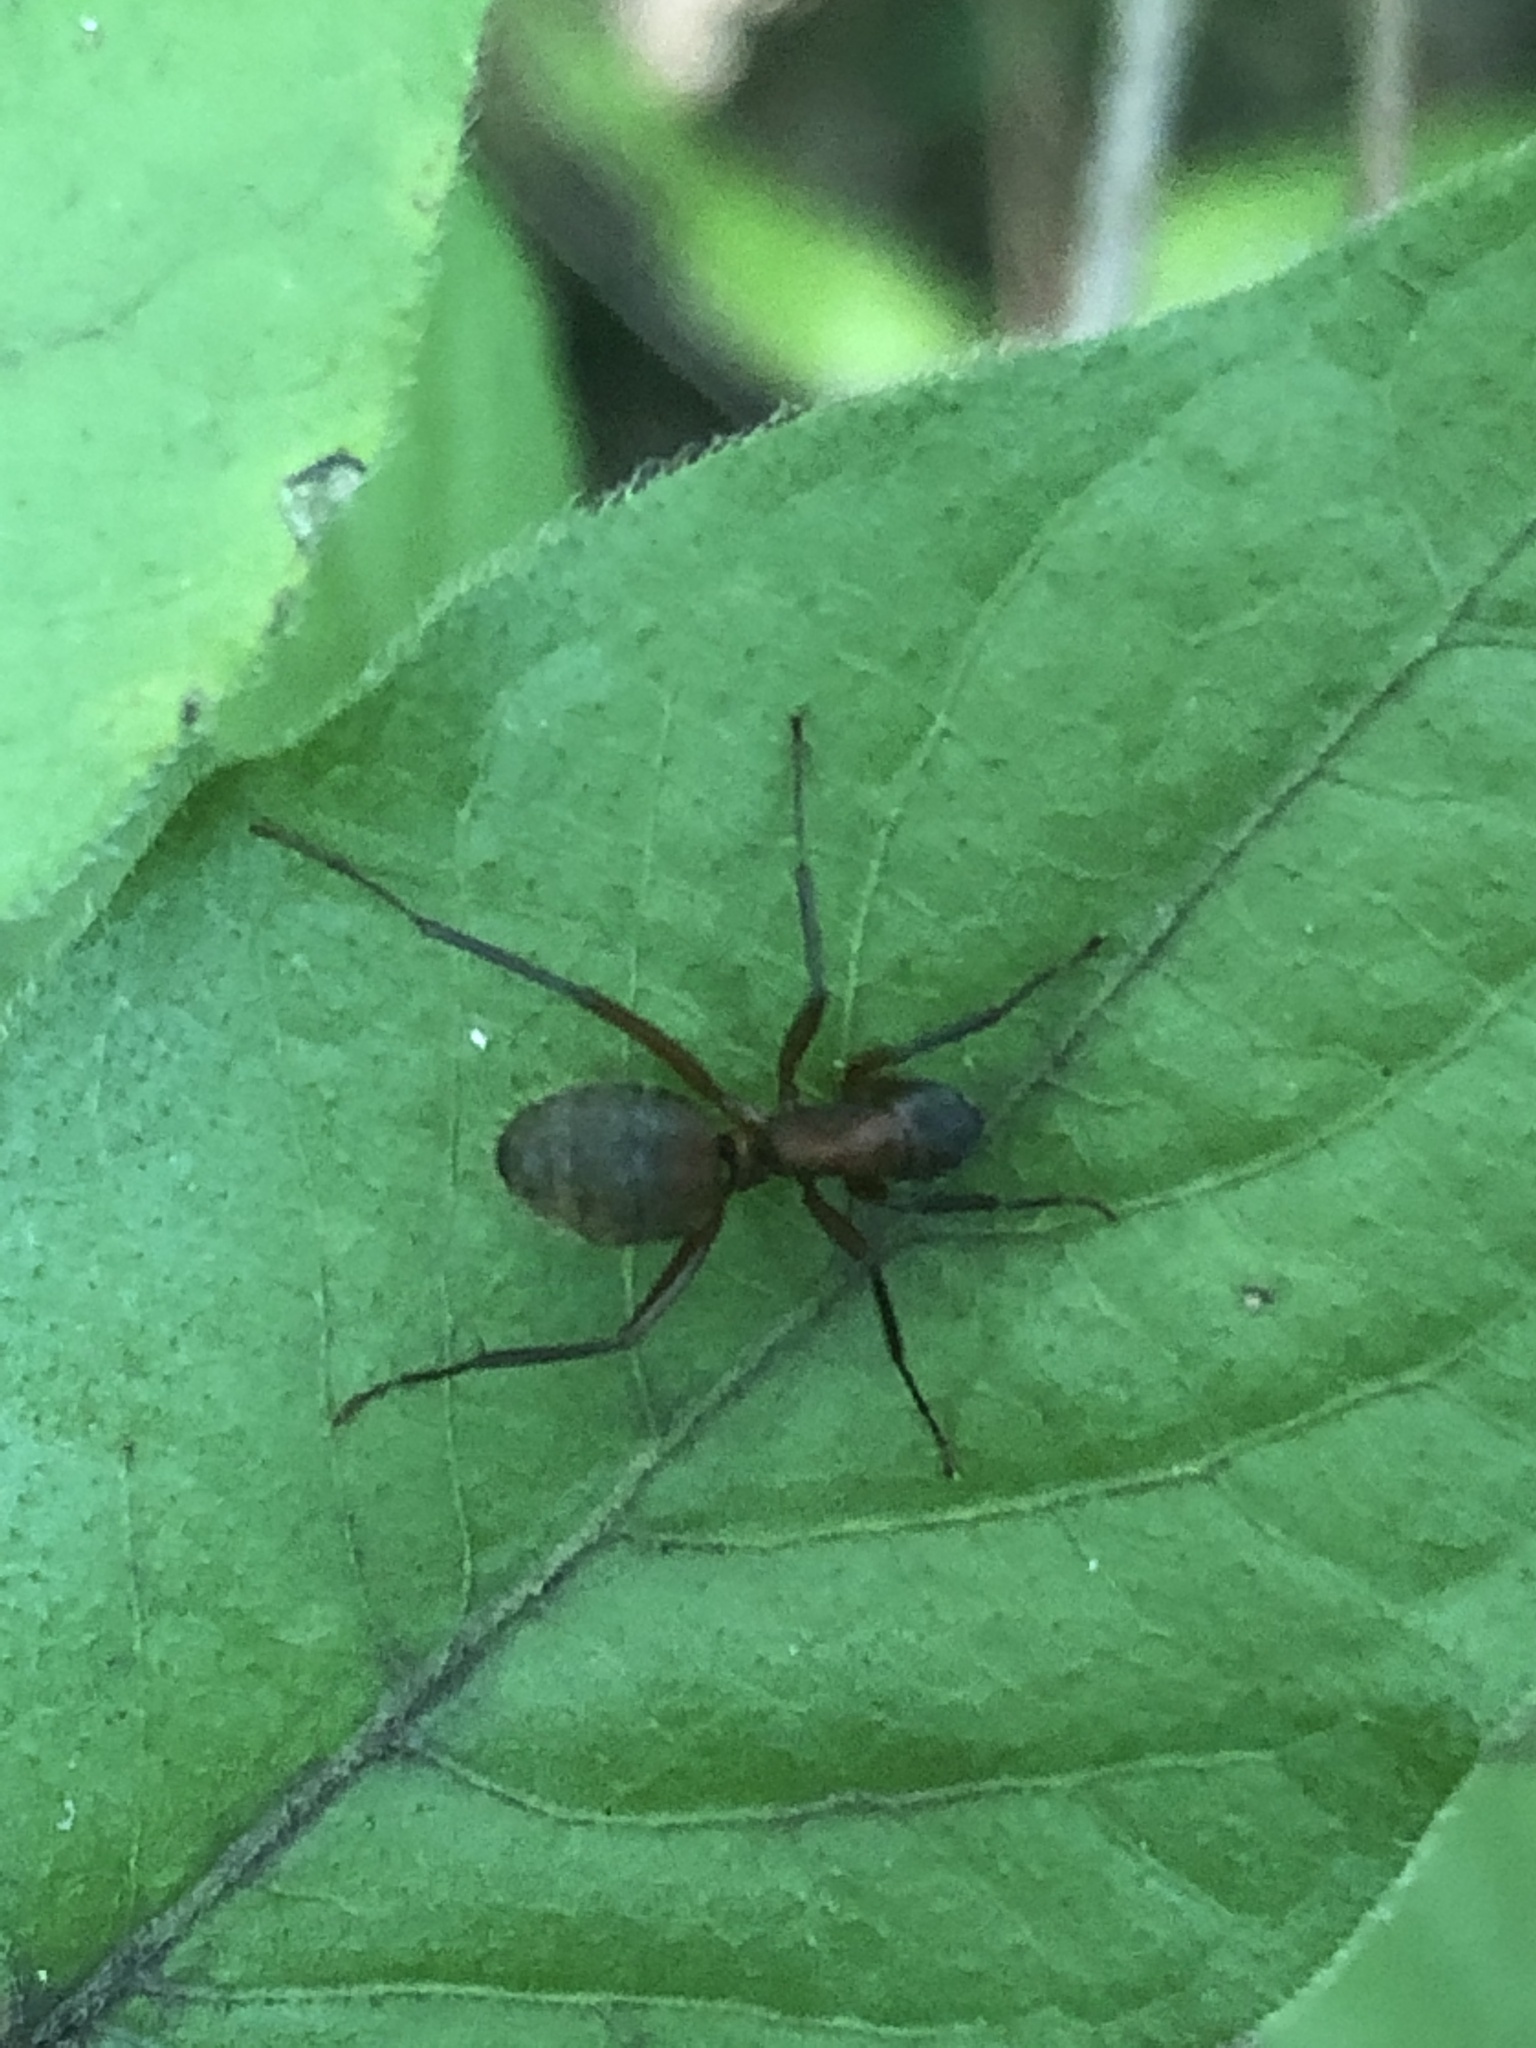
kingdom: Animalia
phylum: Arthropoda
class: Insecta
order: Hymenoptera
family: Formicidae
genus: Camponotus
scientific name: Camponotus chromaiodes
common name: Red carpenter ant
